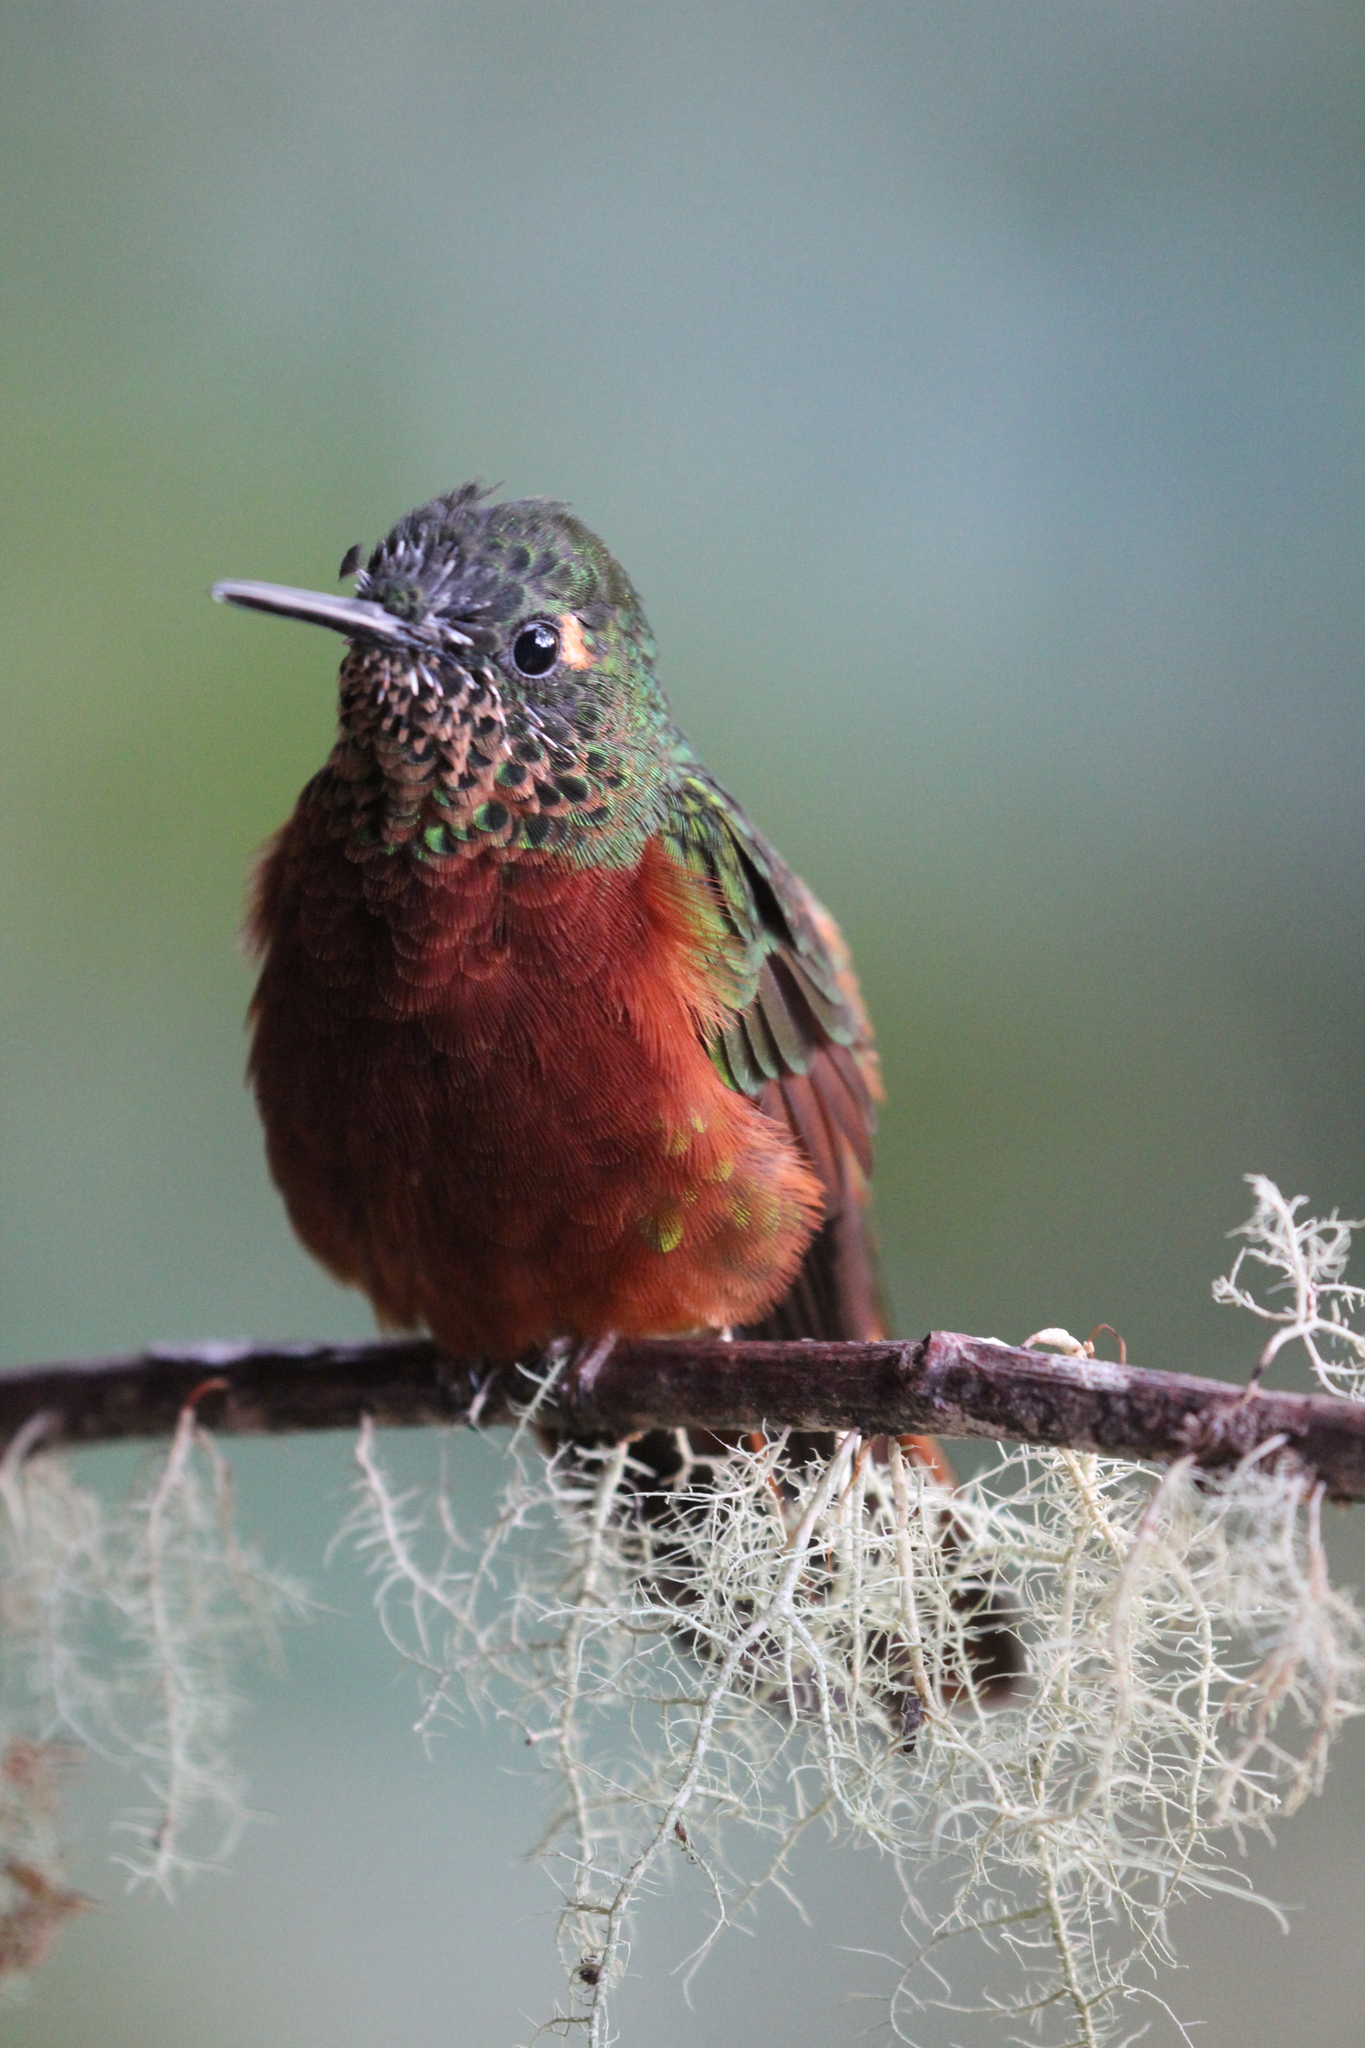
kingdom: Animalia
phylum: Chordata
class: Aves
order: Apodiformes
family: Trochilidae
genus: Boissonneaua
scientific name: Boissonneaua matthewsii
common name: Chestnut-breasted coronet
